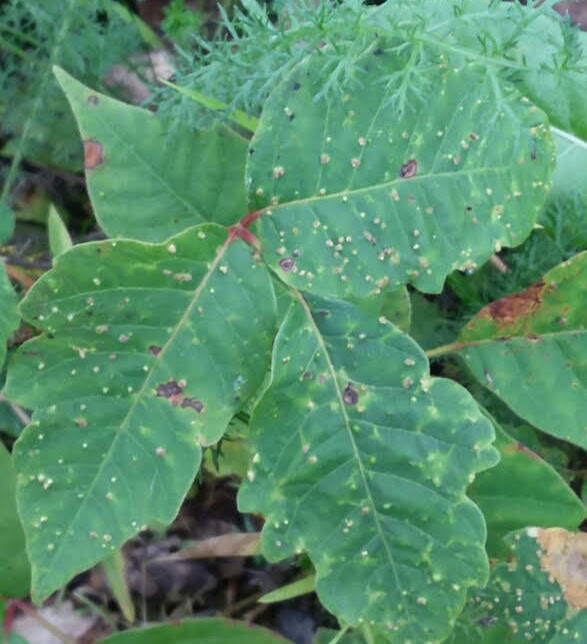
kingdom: Animalia
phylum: Arthropoda
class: Arachnida
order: Trombidiformes
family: Eriophyidae
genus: Aculops
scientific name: Aculops
